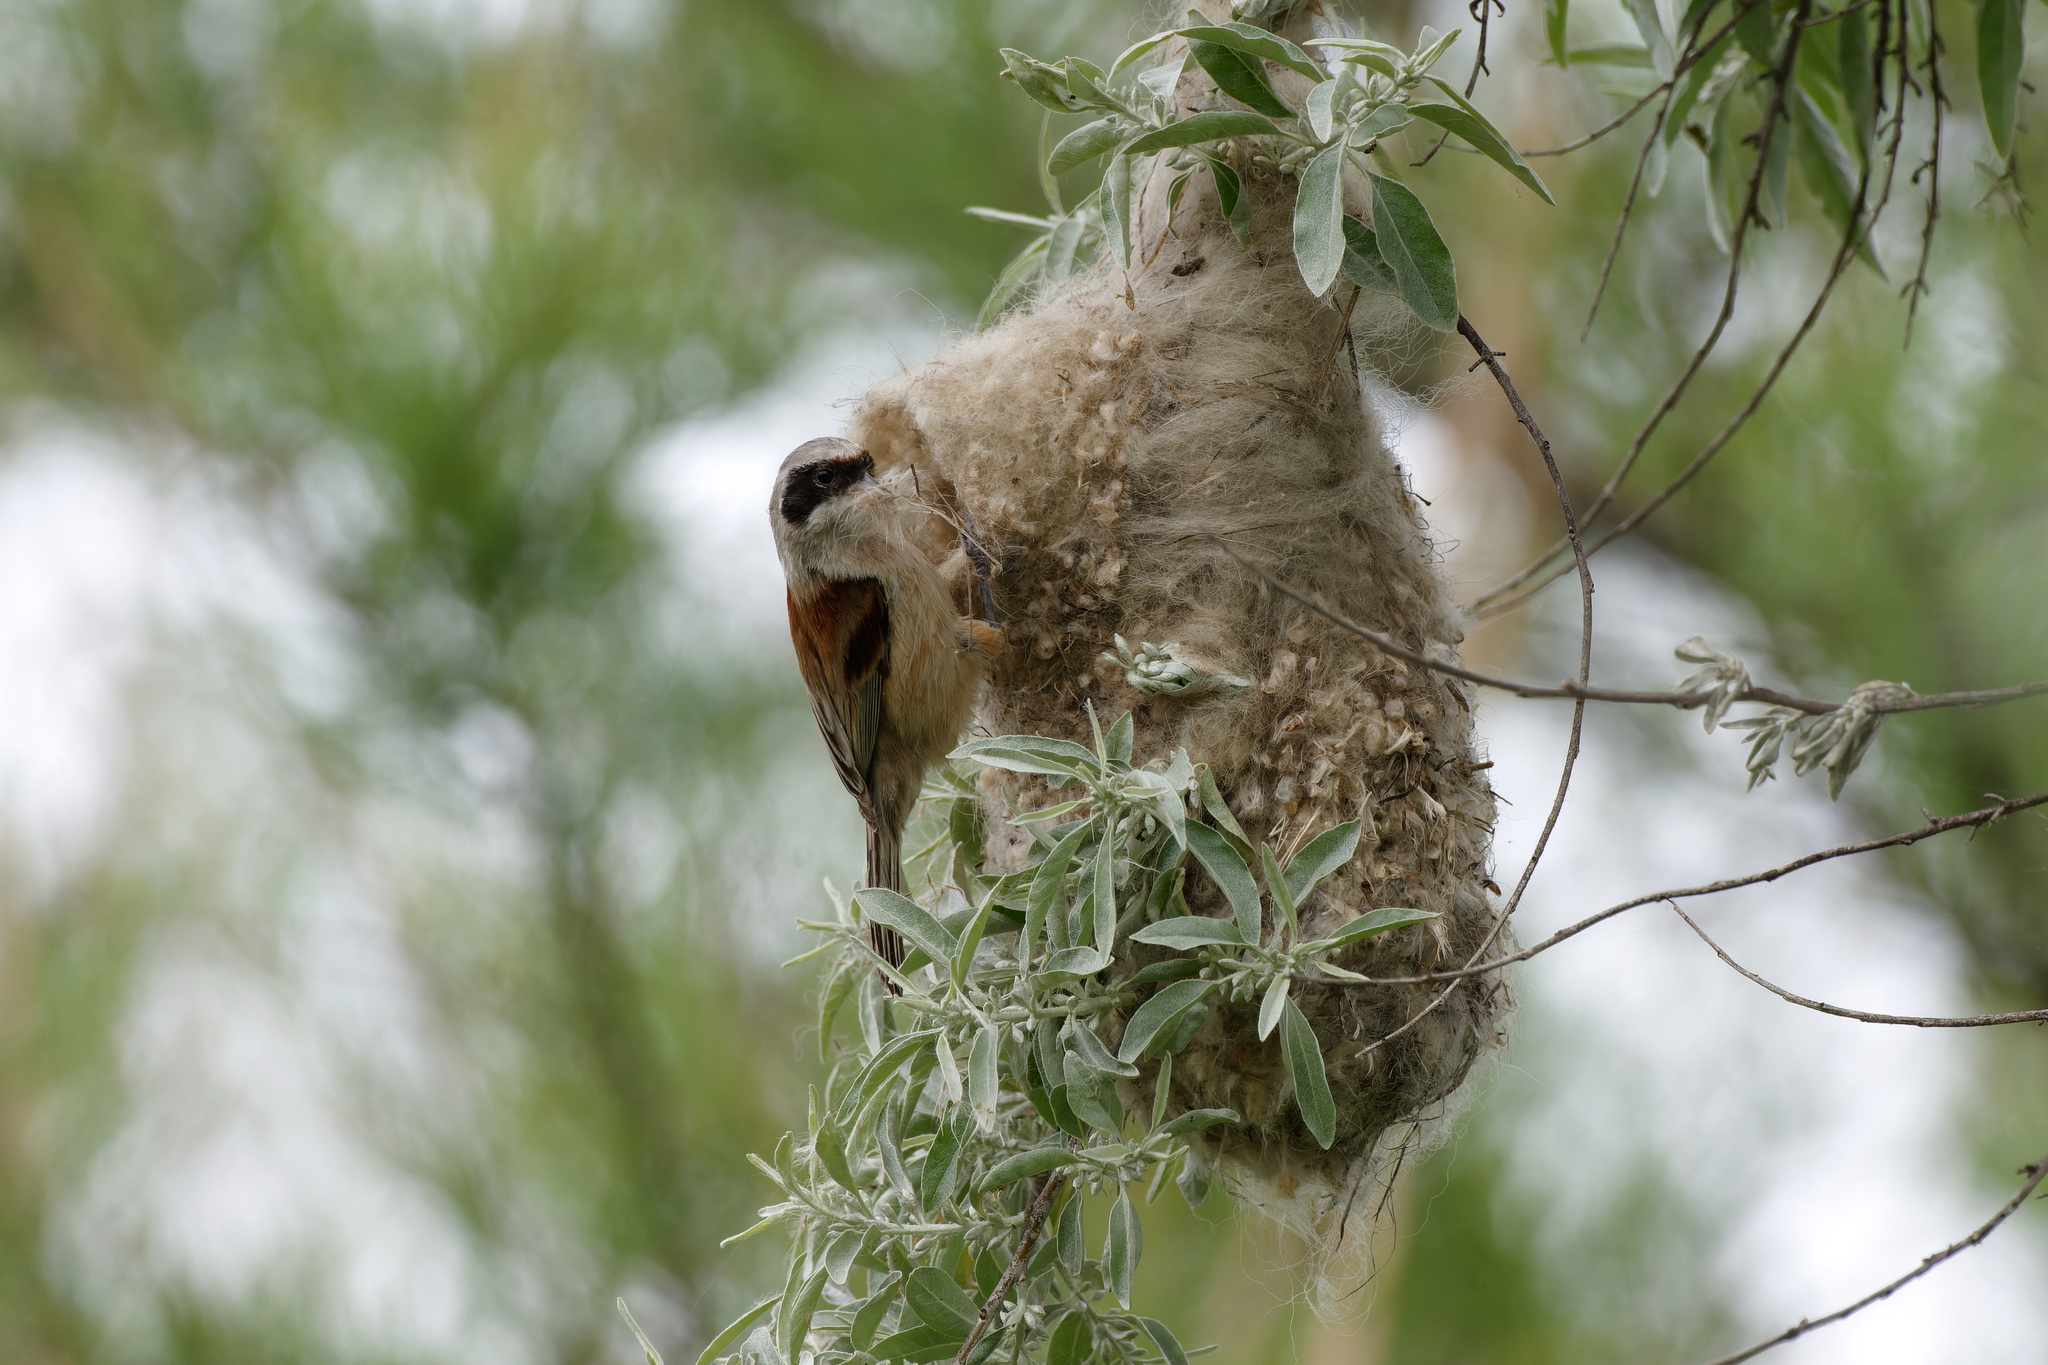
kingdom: Animalia
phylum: Chordata
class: Aves
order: Passeriformes
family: Remizidae
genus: Remiz
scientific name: Remiz pendulinus
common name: Eurasian penduline tit
